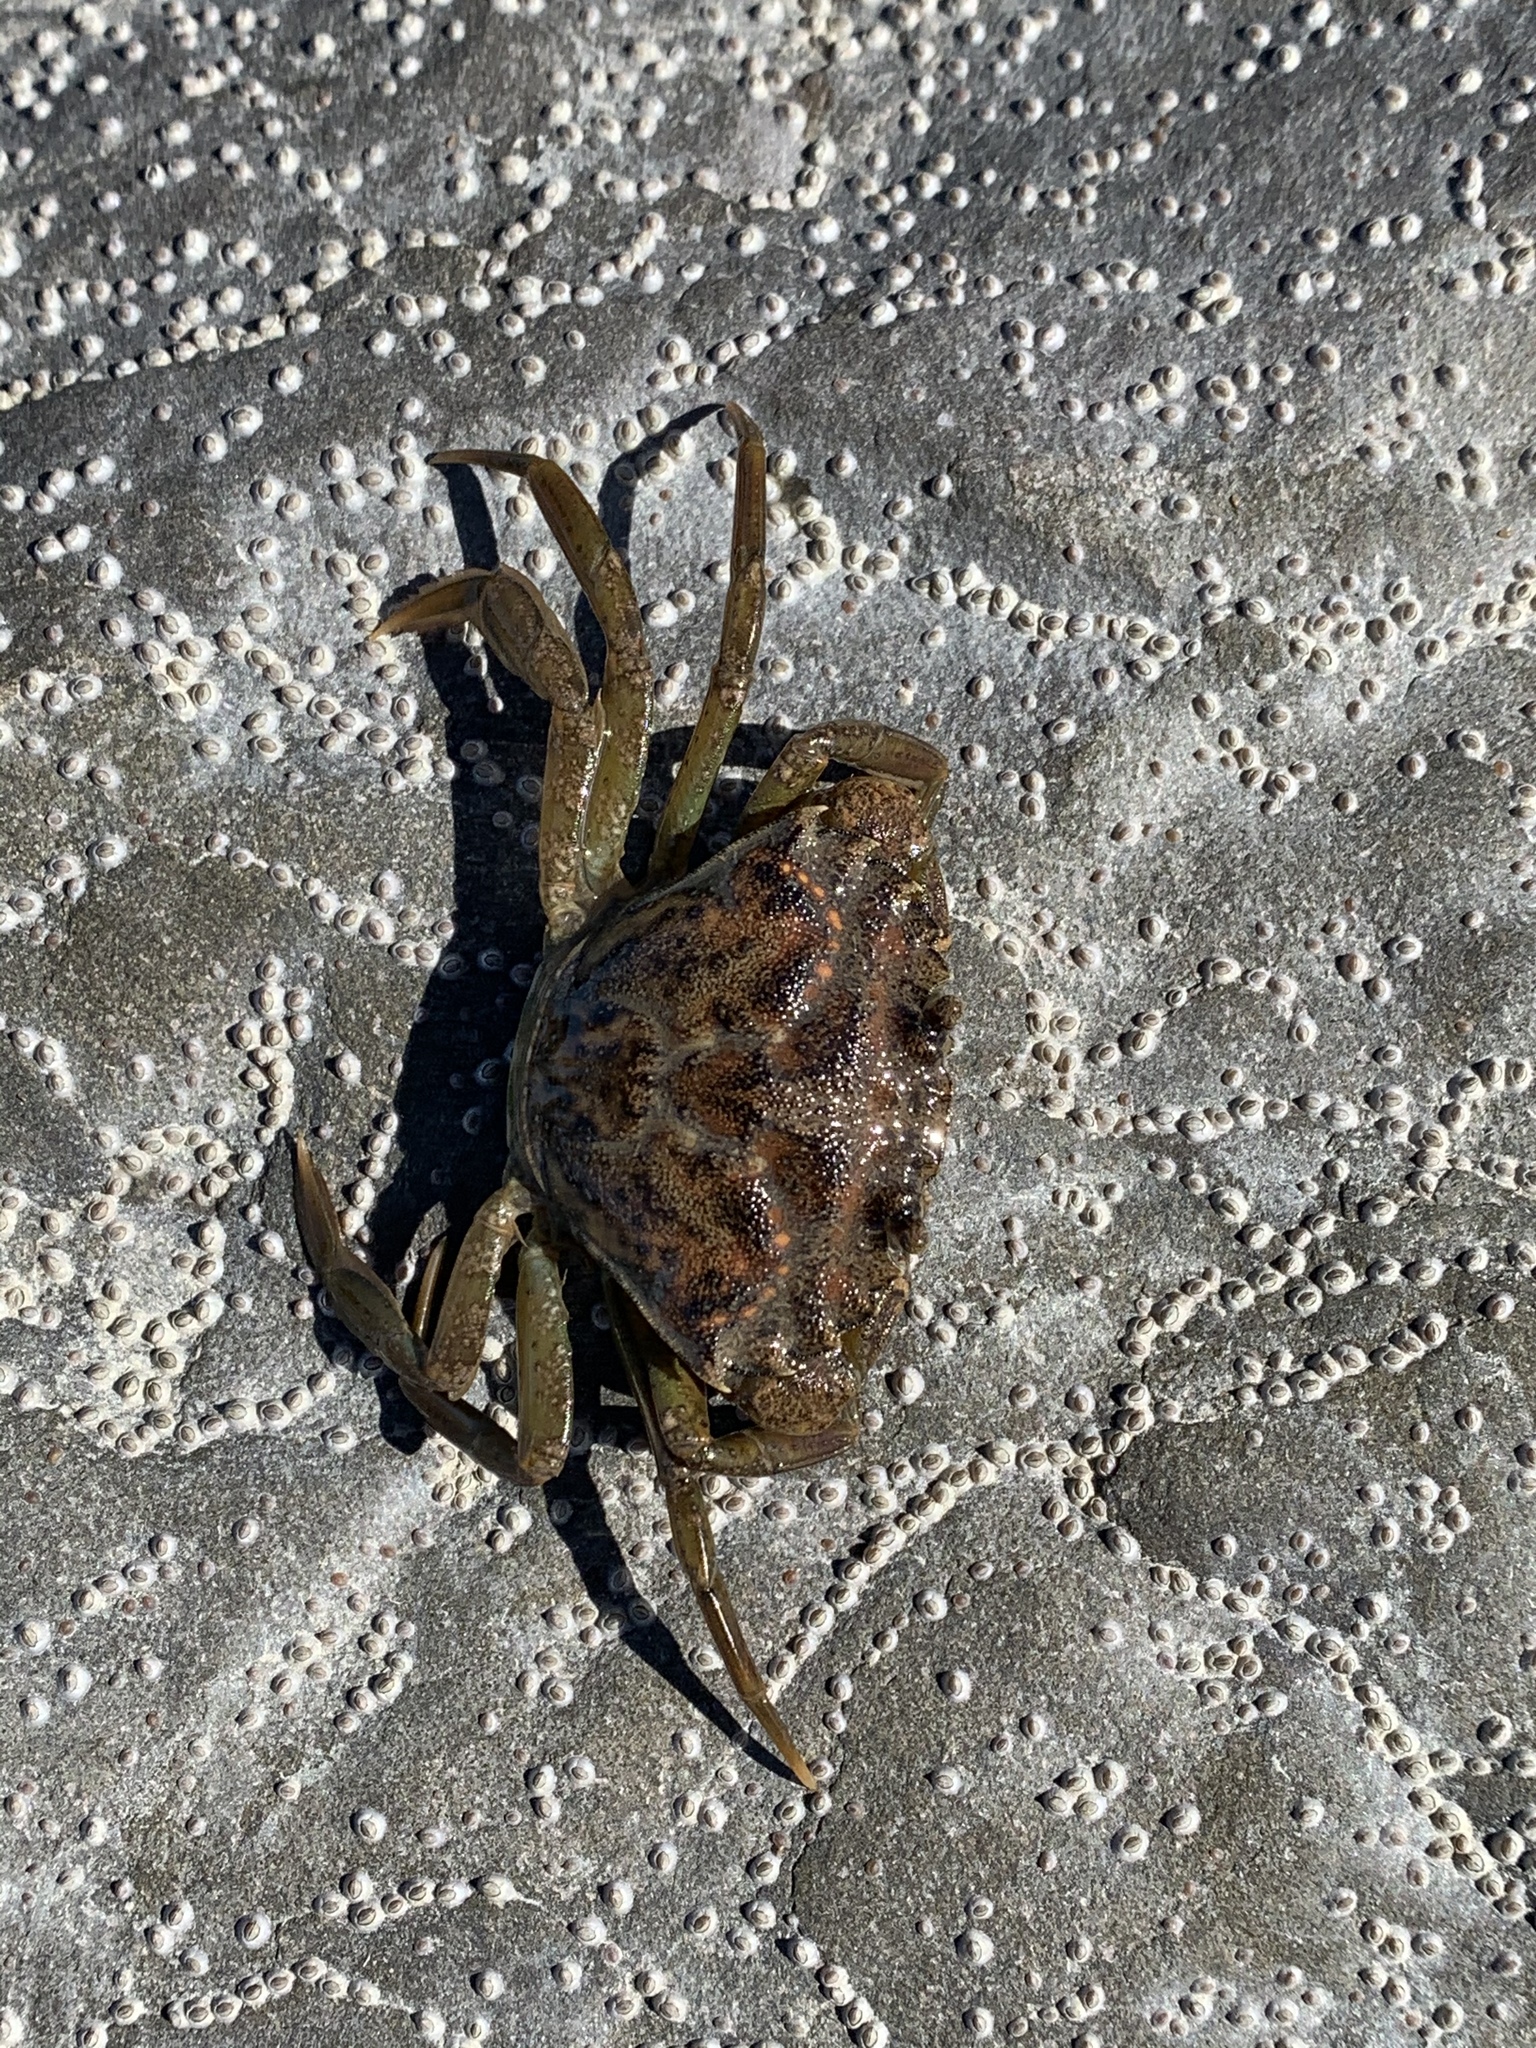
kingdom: Animalia
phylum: Arthropoda
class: Malacostraca
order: Decapoda
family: Carcinidae
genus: Carcinus
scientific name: Carcinus maenas
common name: European green crab
